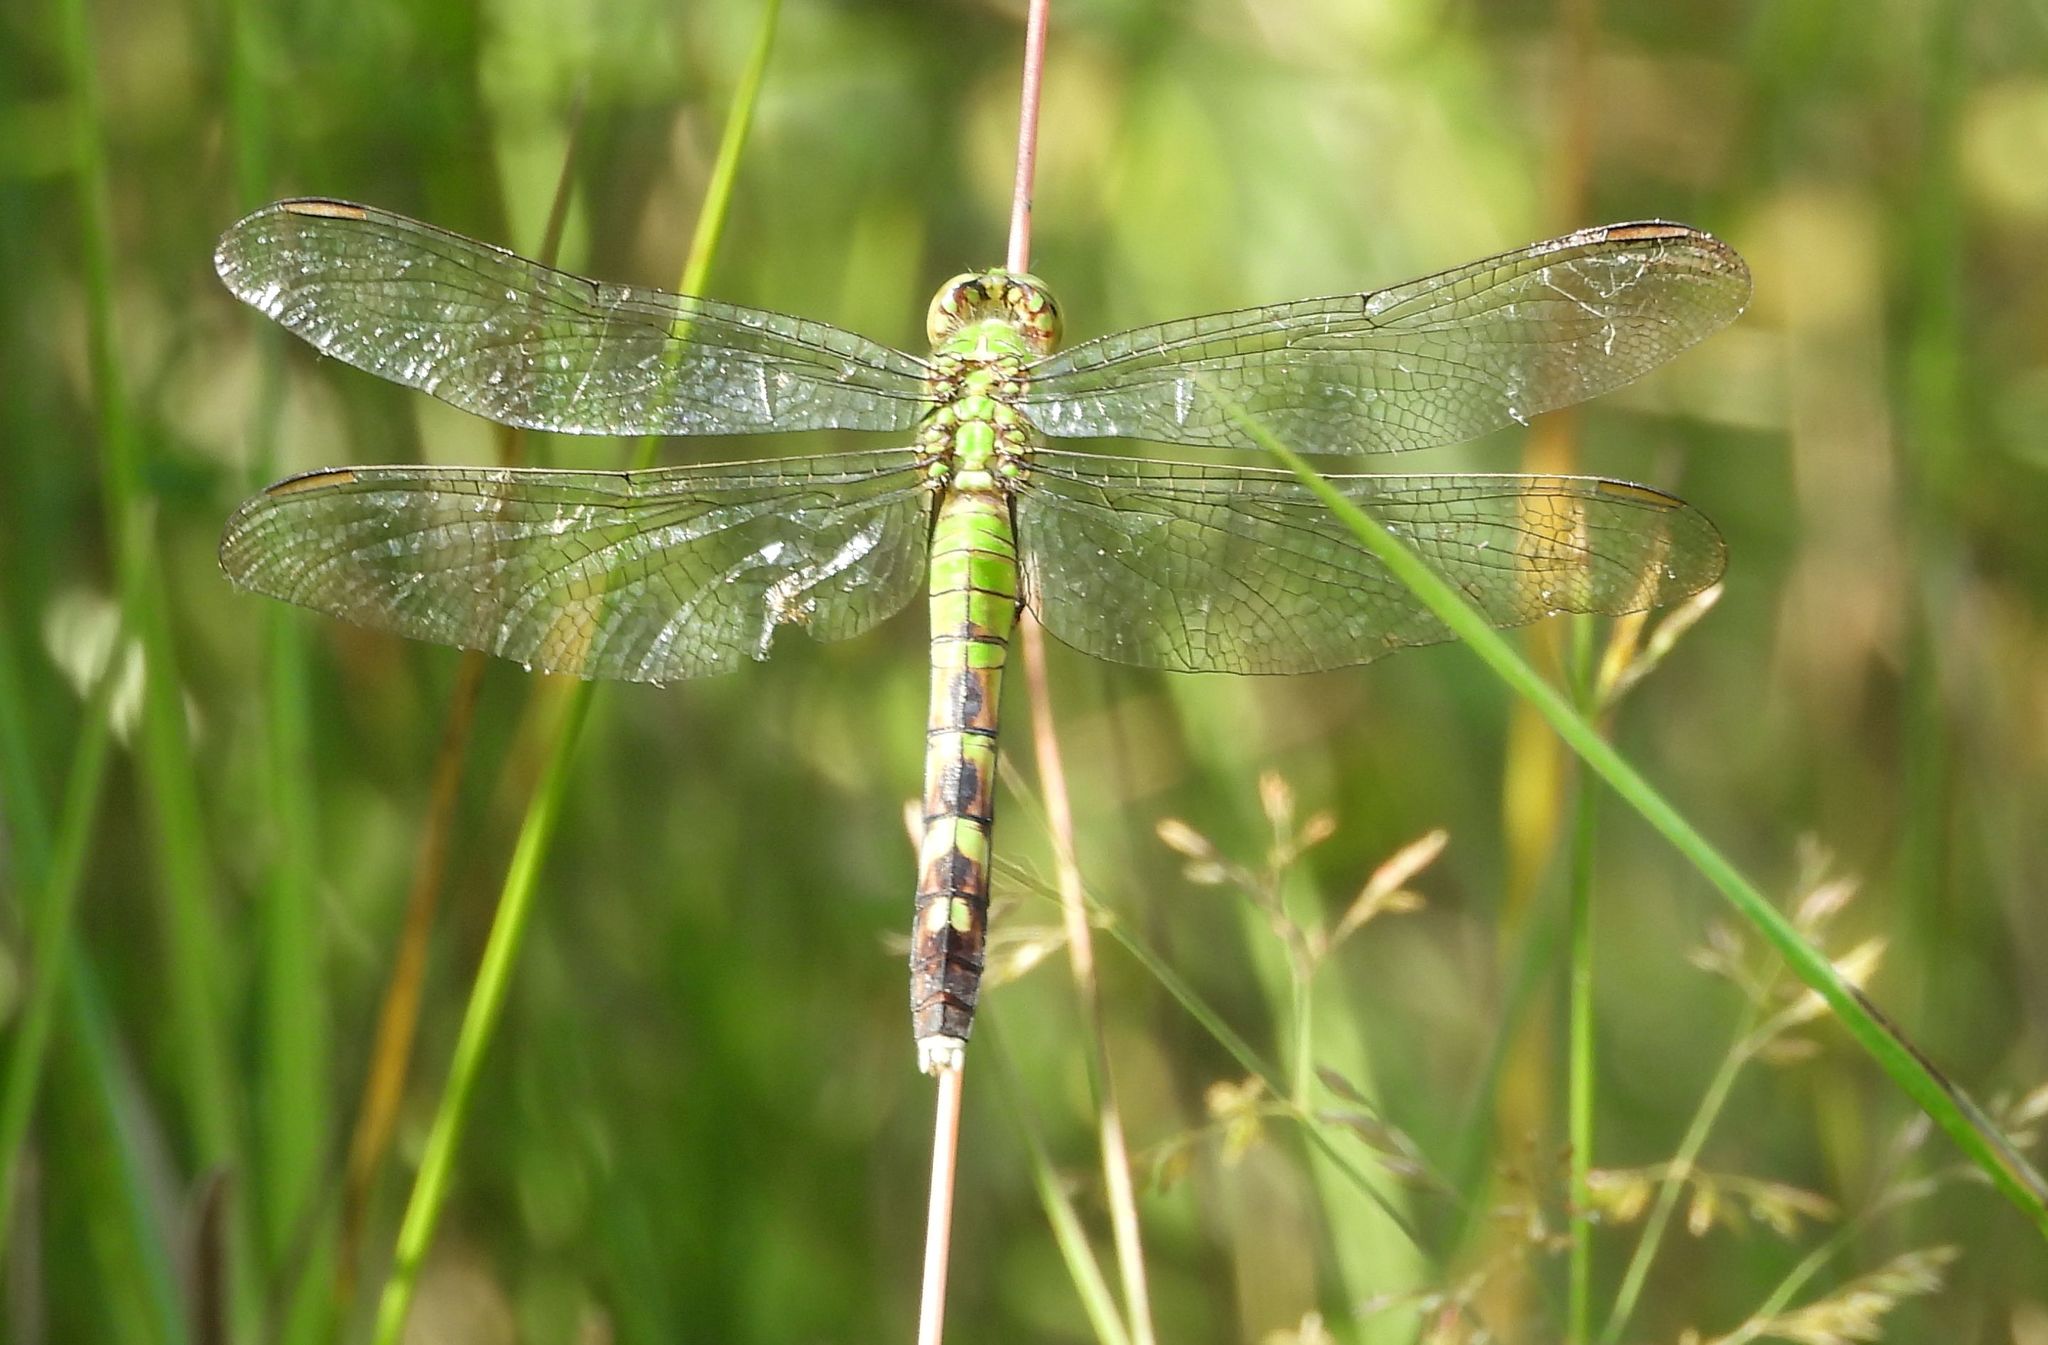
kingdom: Animalia
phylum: Arthropoda
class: Insecta
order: Odonata
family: Libellulidae
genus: Erythemis
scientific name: Erythemis simplicicollis
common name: Eastern pondhawk
